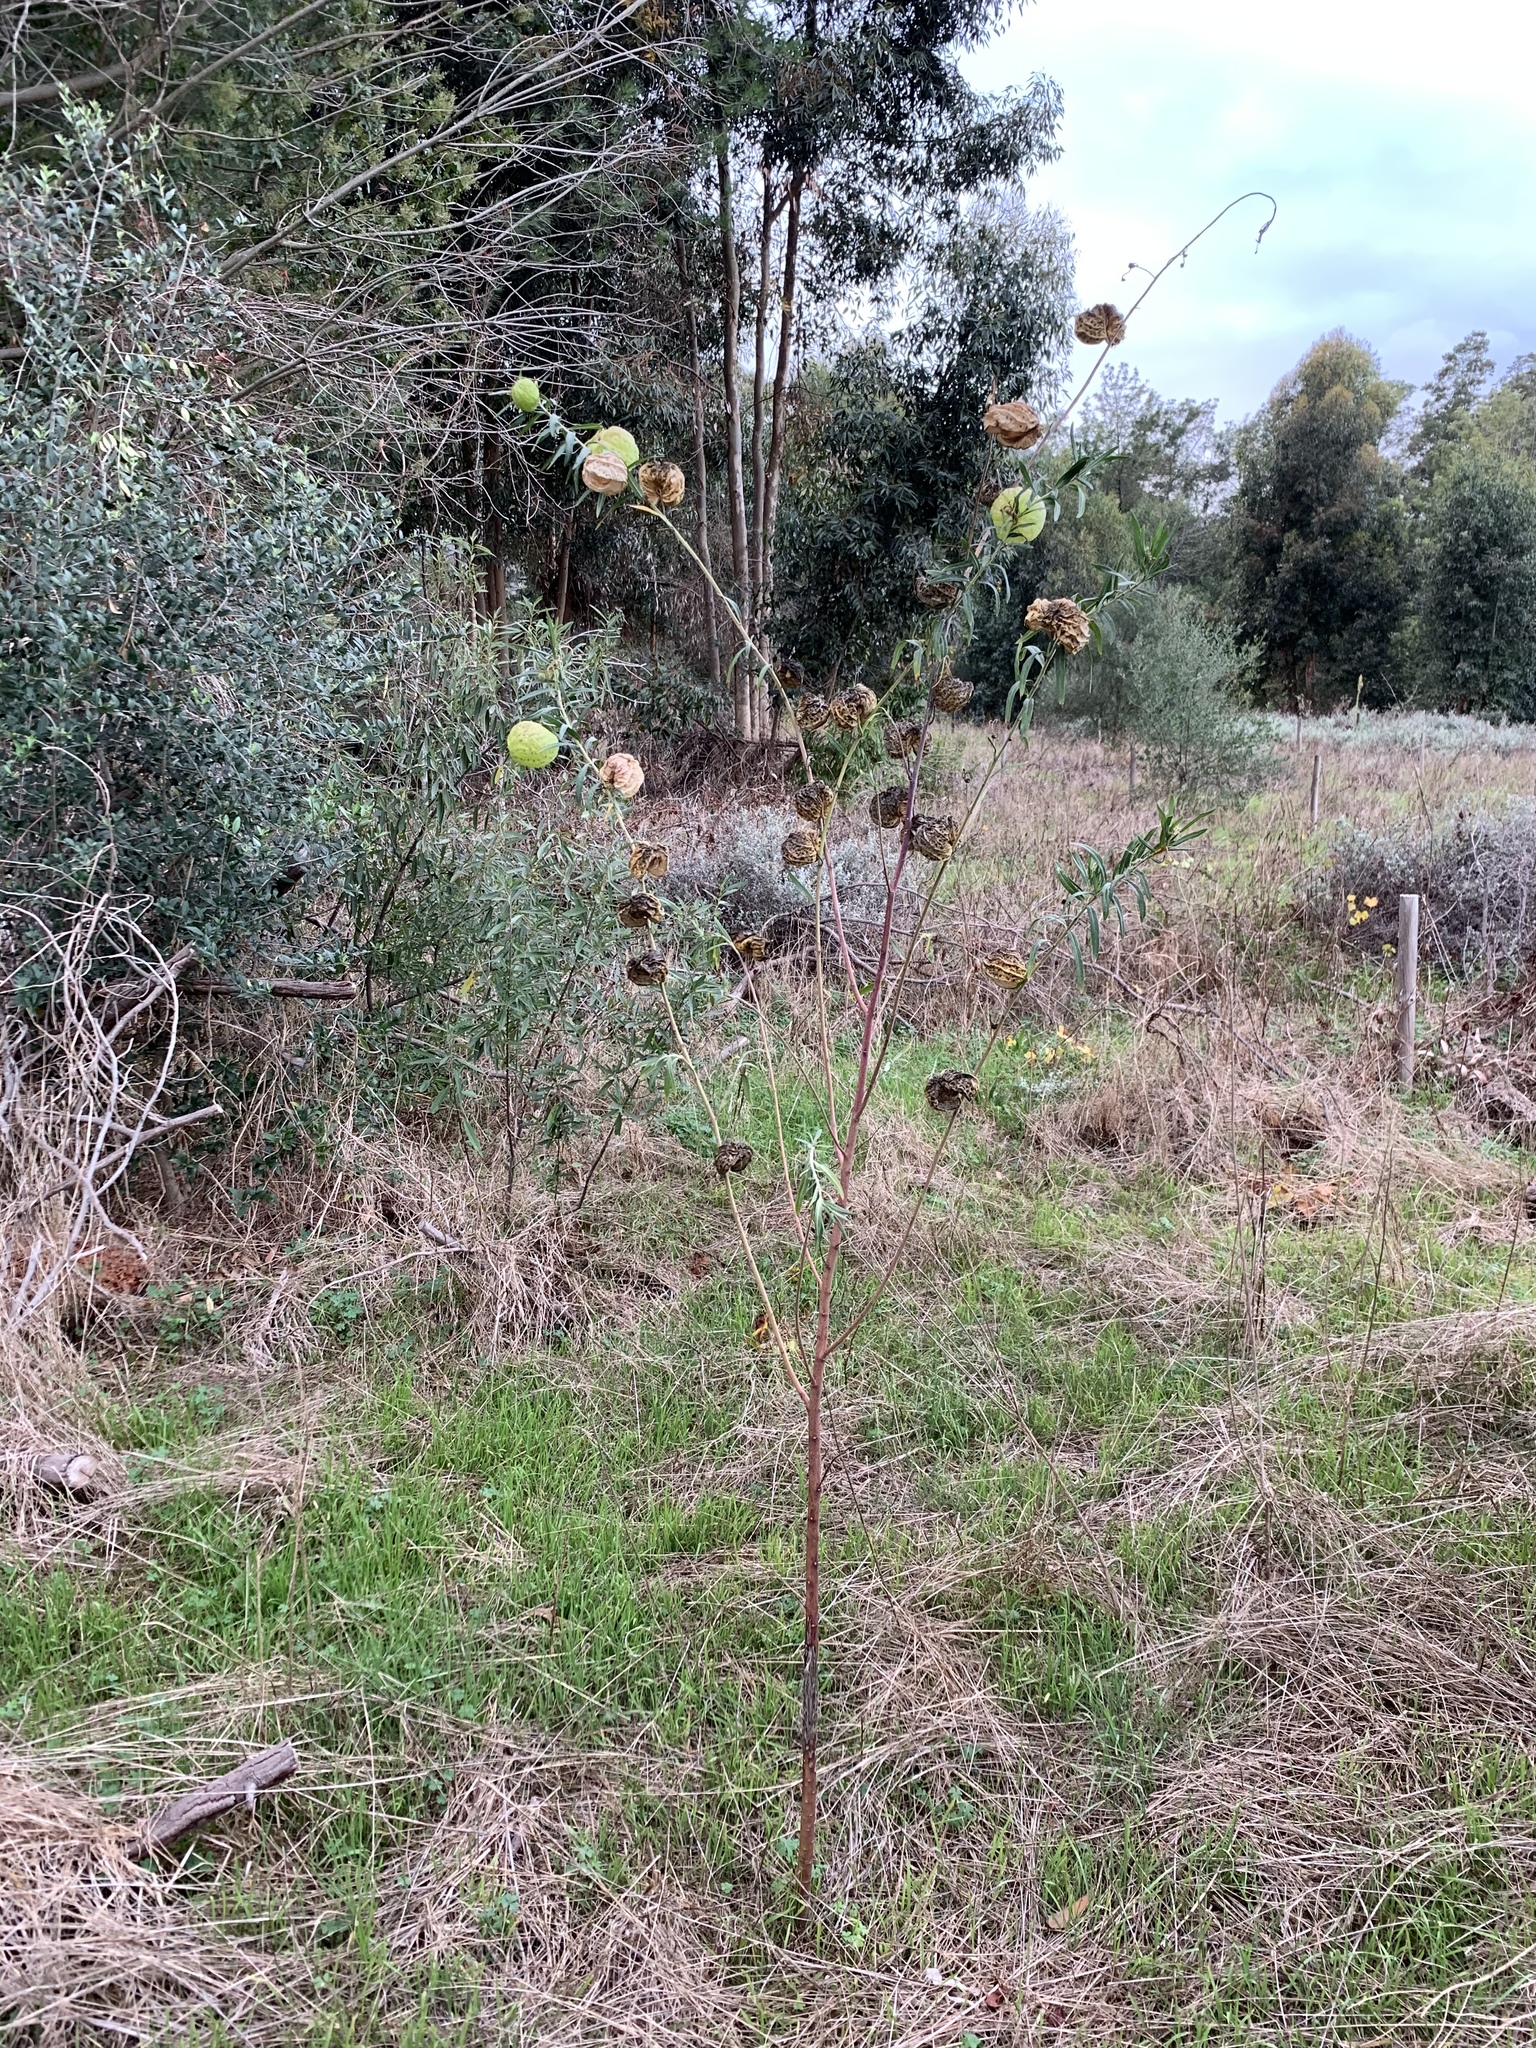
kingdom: Plantae
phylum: Tracheophyta
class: Magnoliopsida
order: Gentianales
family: Apocynaceae
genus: Gomphocarpus
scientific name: Gomphocarpus physocarpus
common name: Balloon cotton bush
